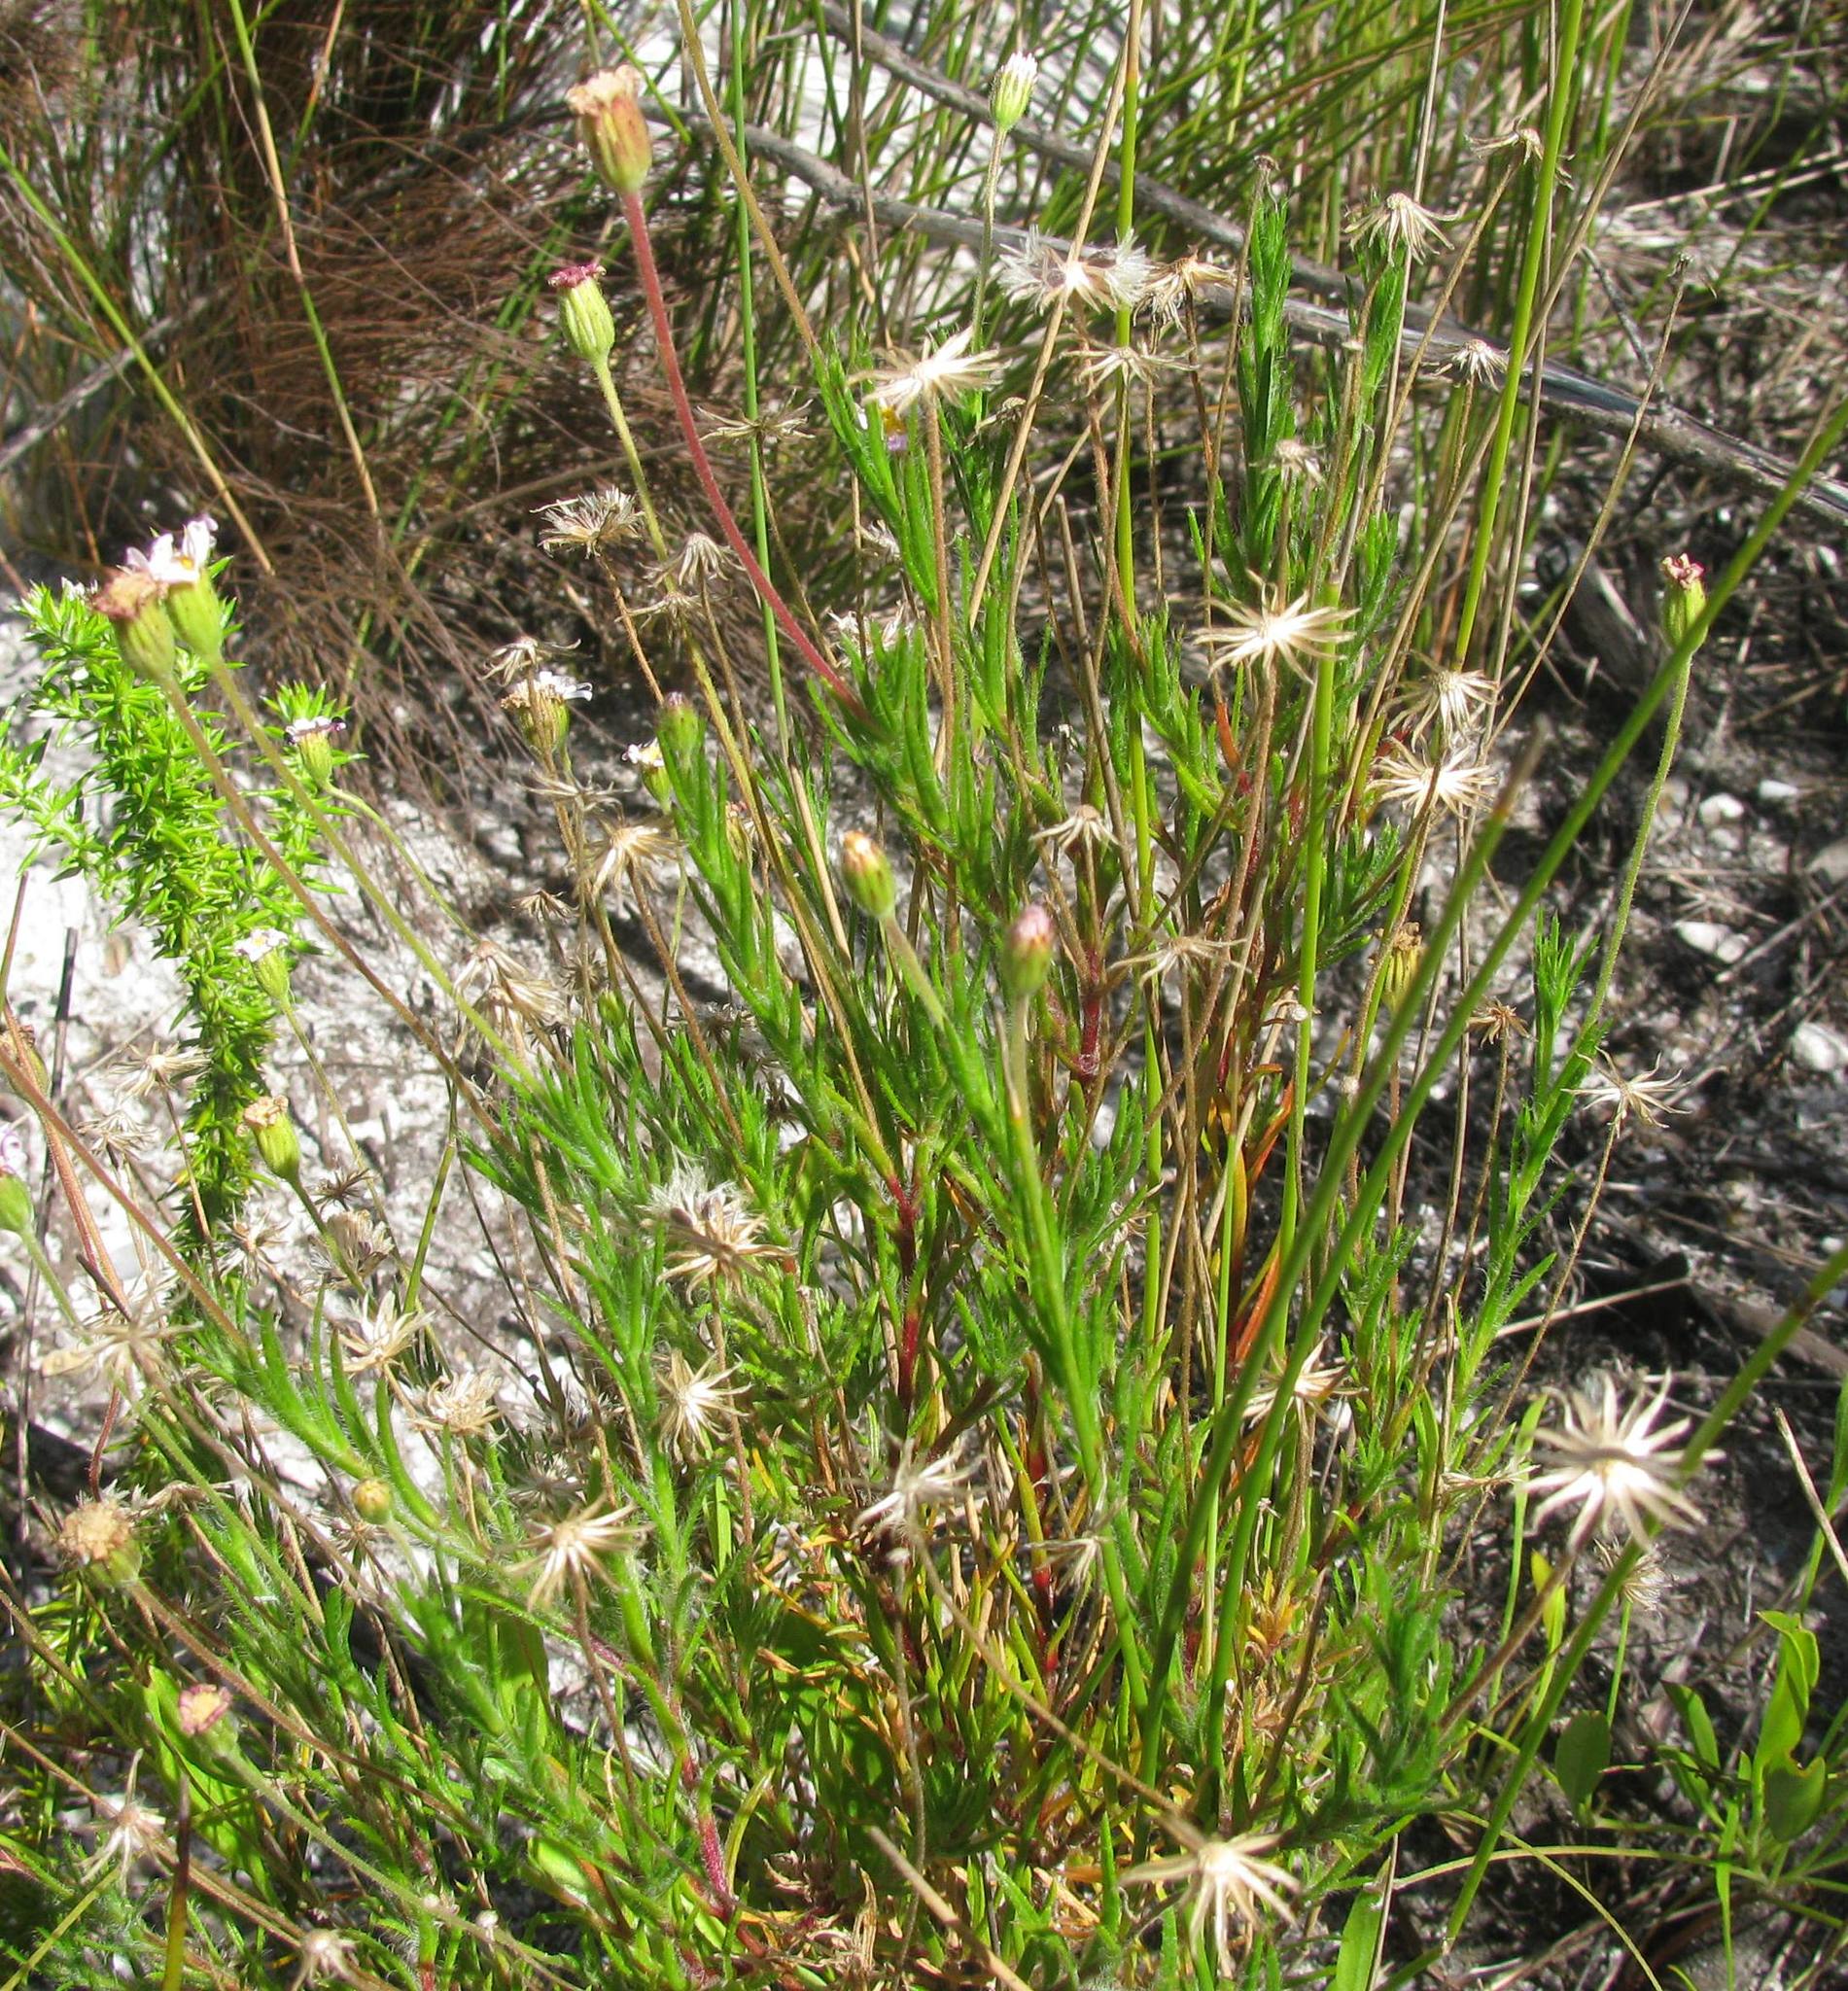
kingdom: Plantae
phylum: Tracheophyta
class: Magnoliopsida
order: Asterales
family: Asteraceae
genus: Zyrphelis
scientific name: Zyrphelis
